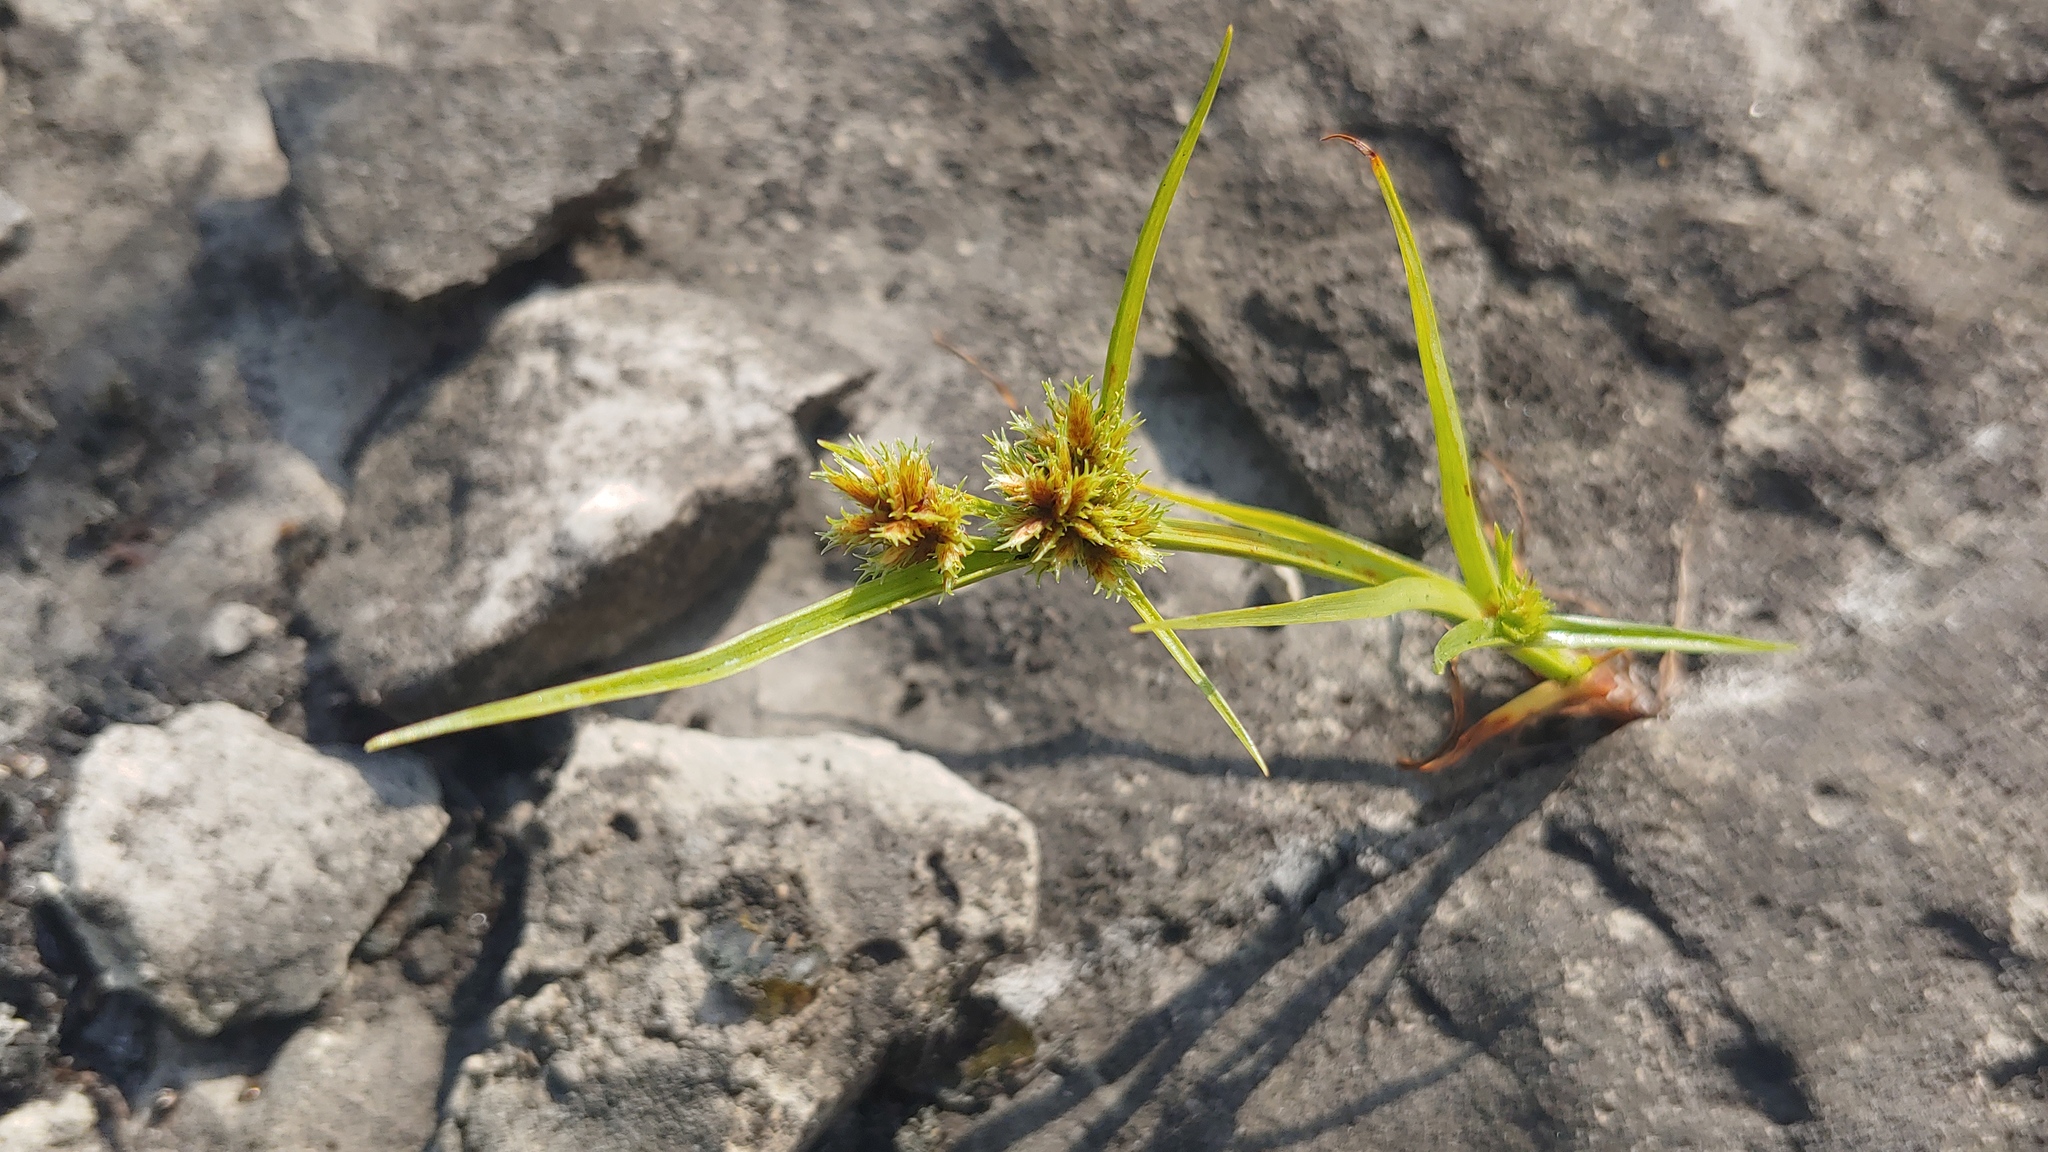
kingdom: Plantae
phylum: Tracheophyta
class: Liliopsida
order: Poales
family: Cyperaceae
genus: Cyperus
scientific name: Cyperus squarrosus
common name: Awned cyperus
